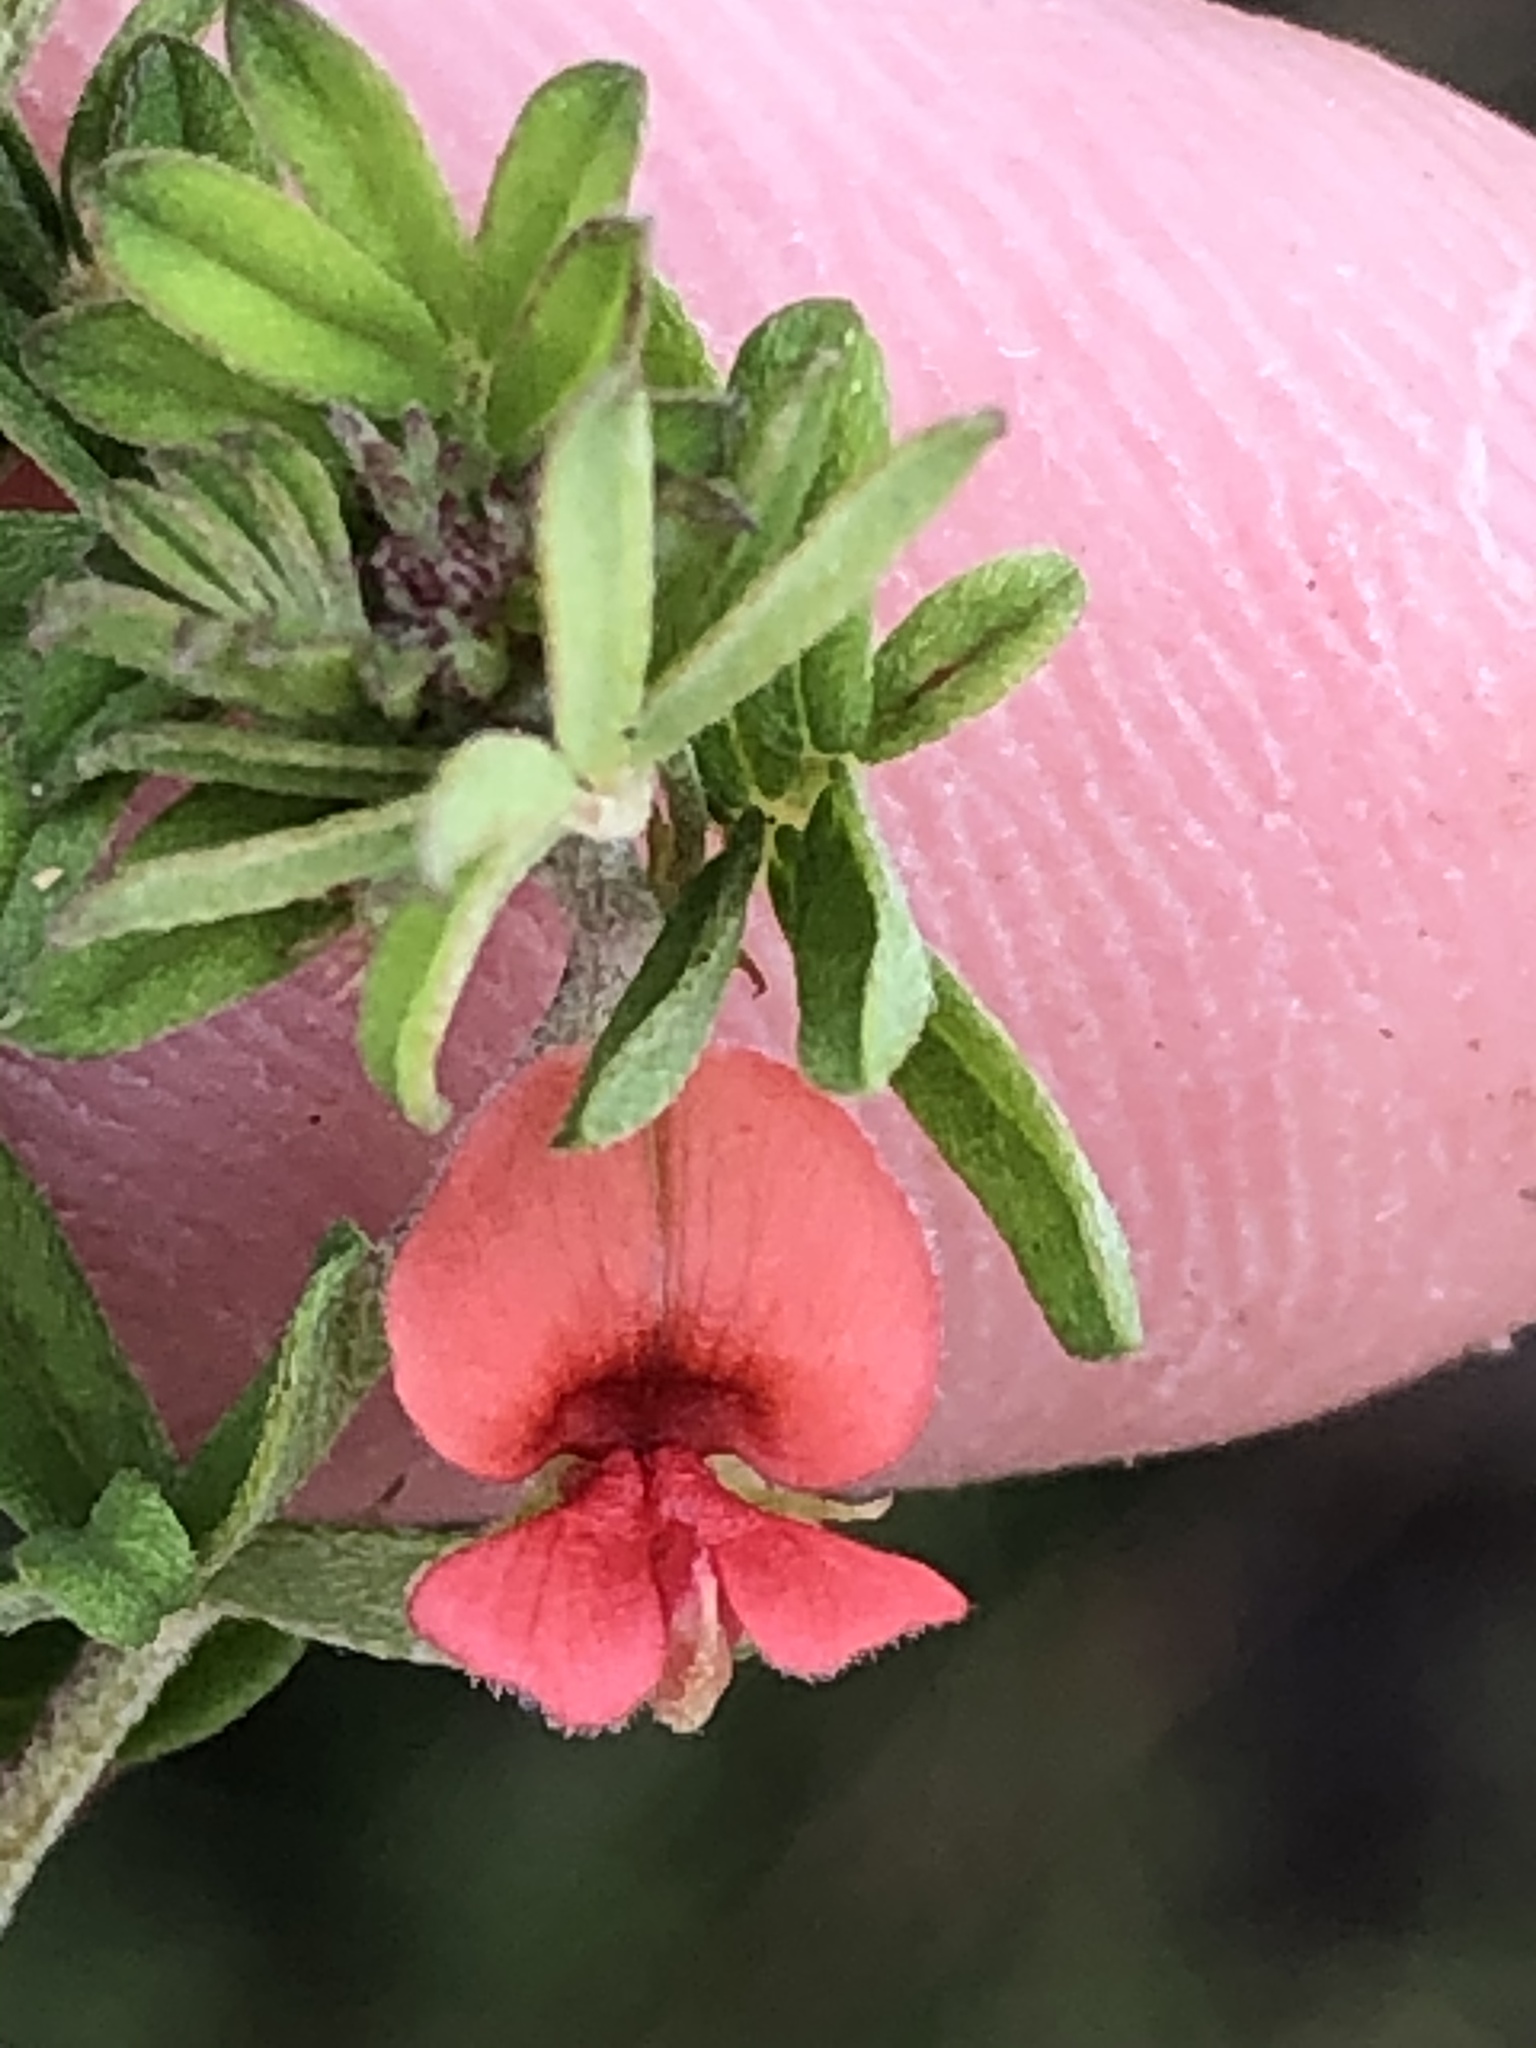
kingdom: Plantae
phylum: Tracheophyta
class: Magnoliopsida
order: Fabales
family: Fabaceae
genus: Indigofera
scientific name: Indigofera priorii
